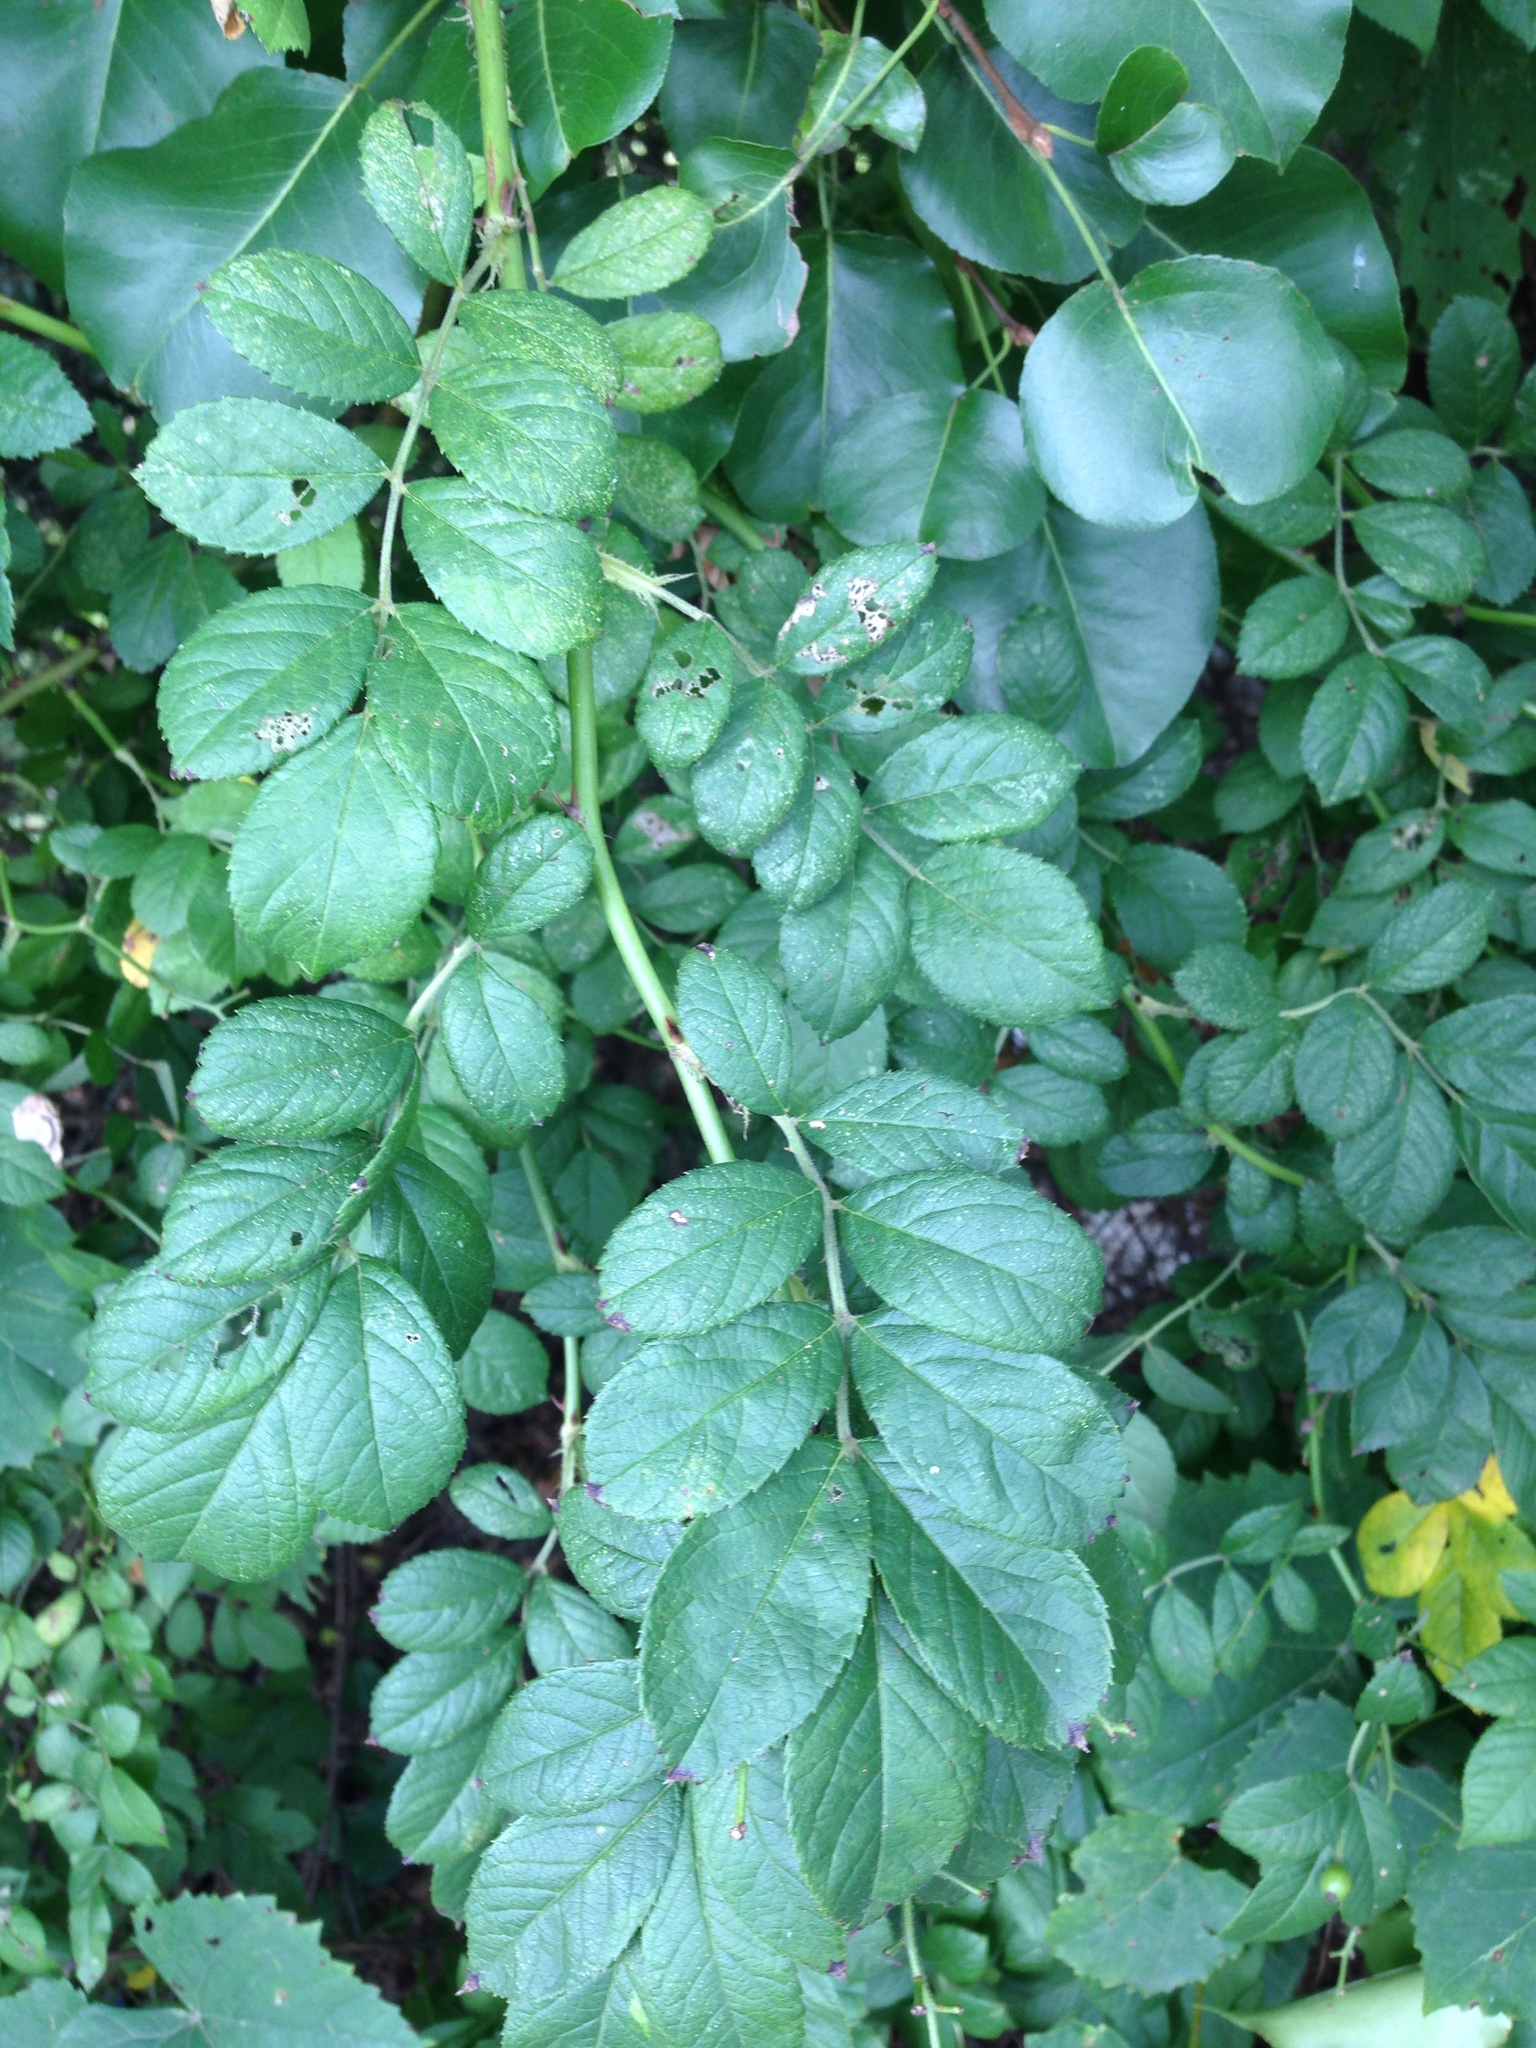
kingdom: Plantae
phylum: Tracheophyta
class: Magnoliopsida
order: Rosales
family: Rosaceae
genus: Rosa
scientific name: Rosa multiflora
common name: Multiflora rose
